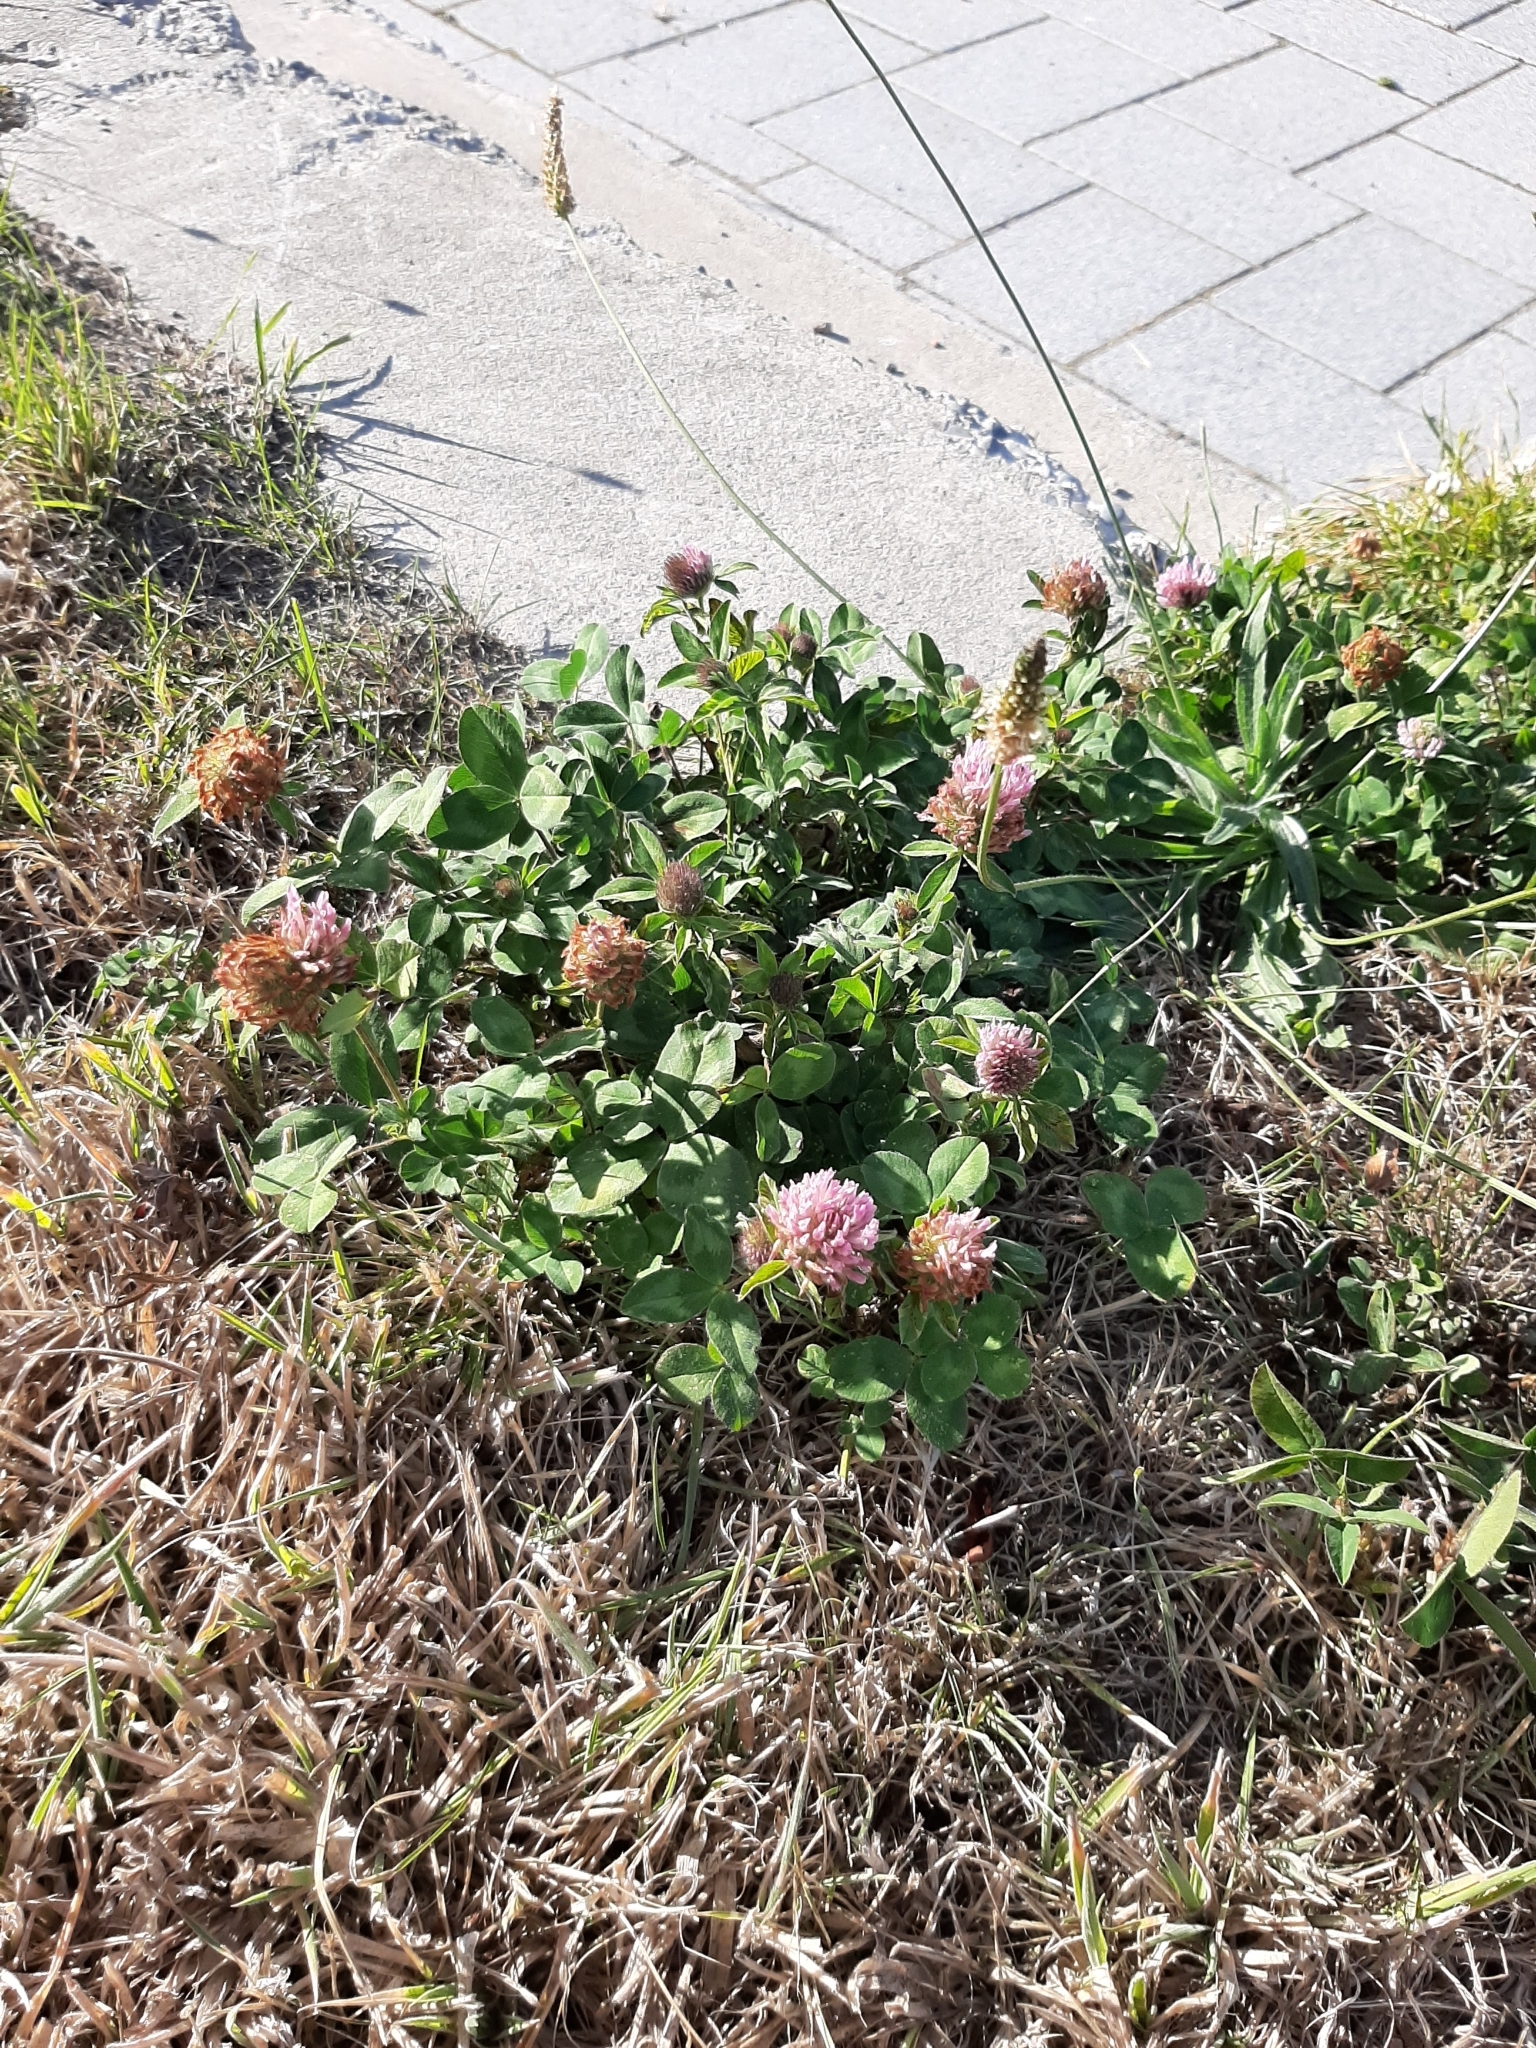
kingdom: Plantae
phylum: Tracheophyta
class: Magnoliopsida
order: Fabales
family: Fabaceae
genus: Trifolium
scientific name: Trifolium pratense
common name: Red clover
